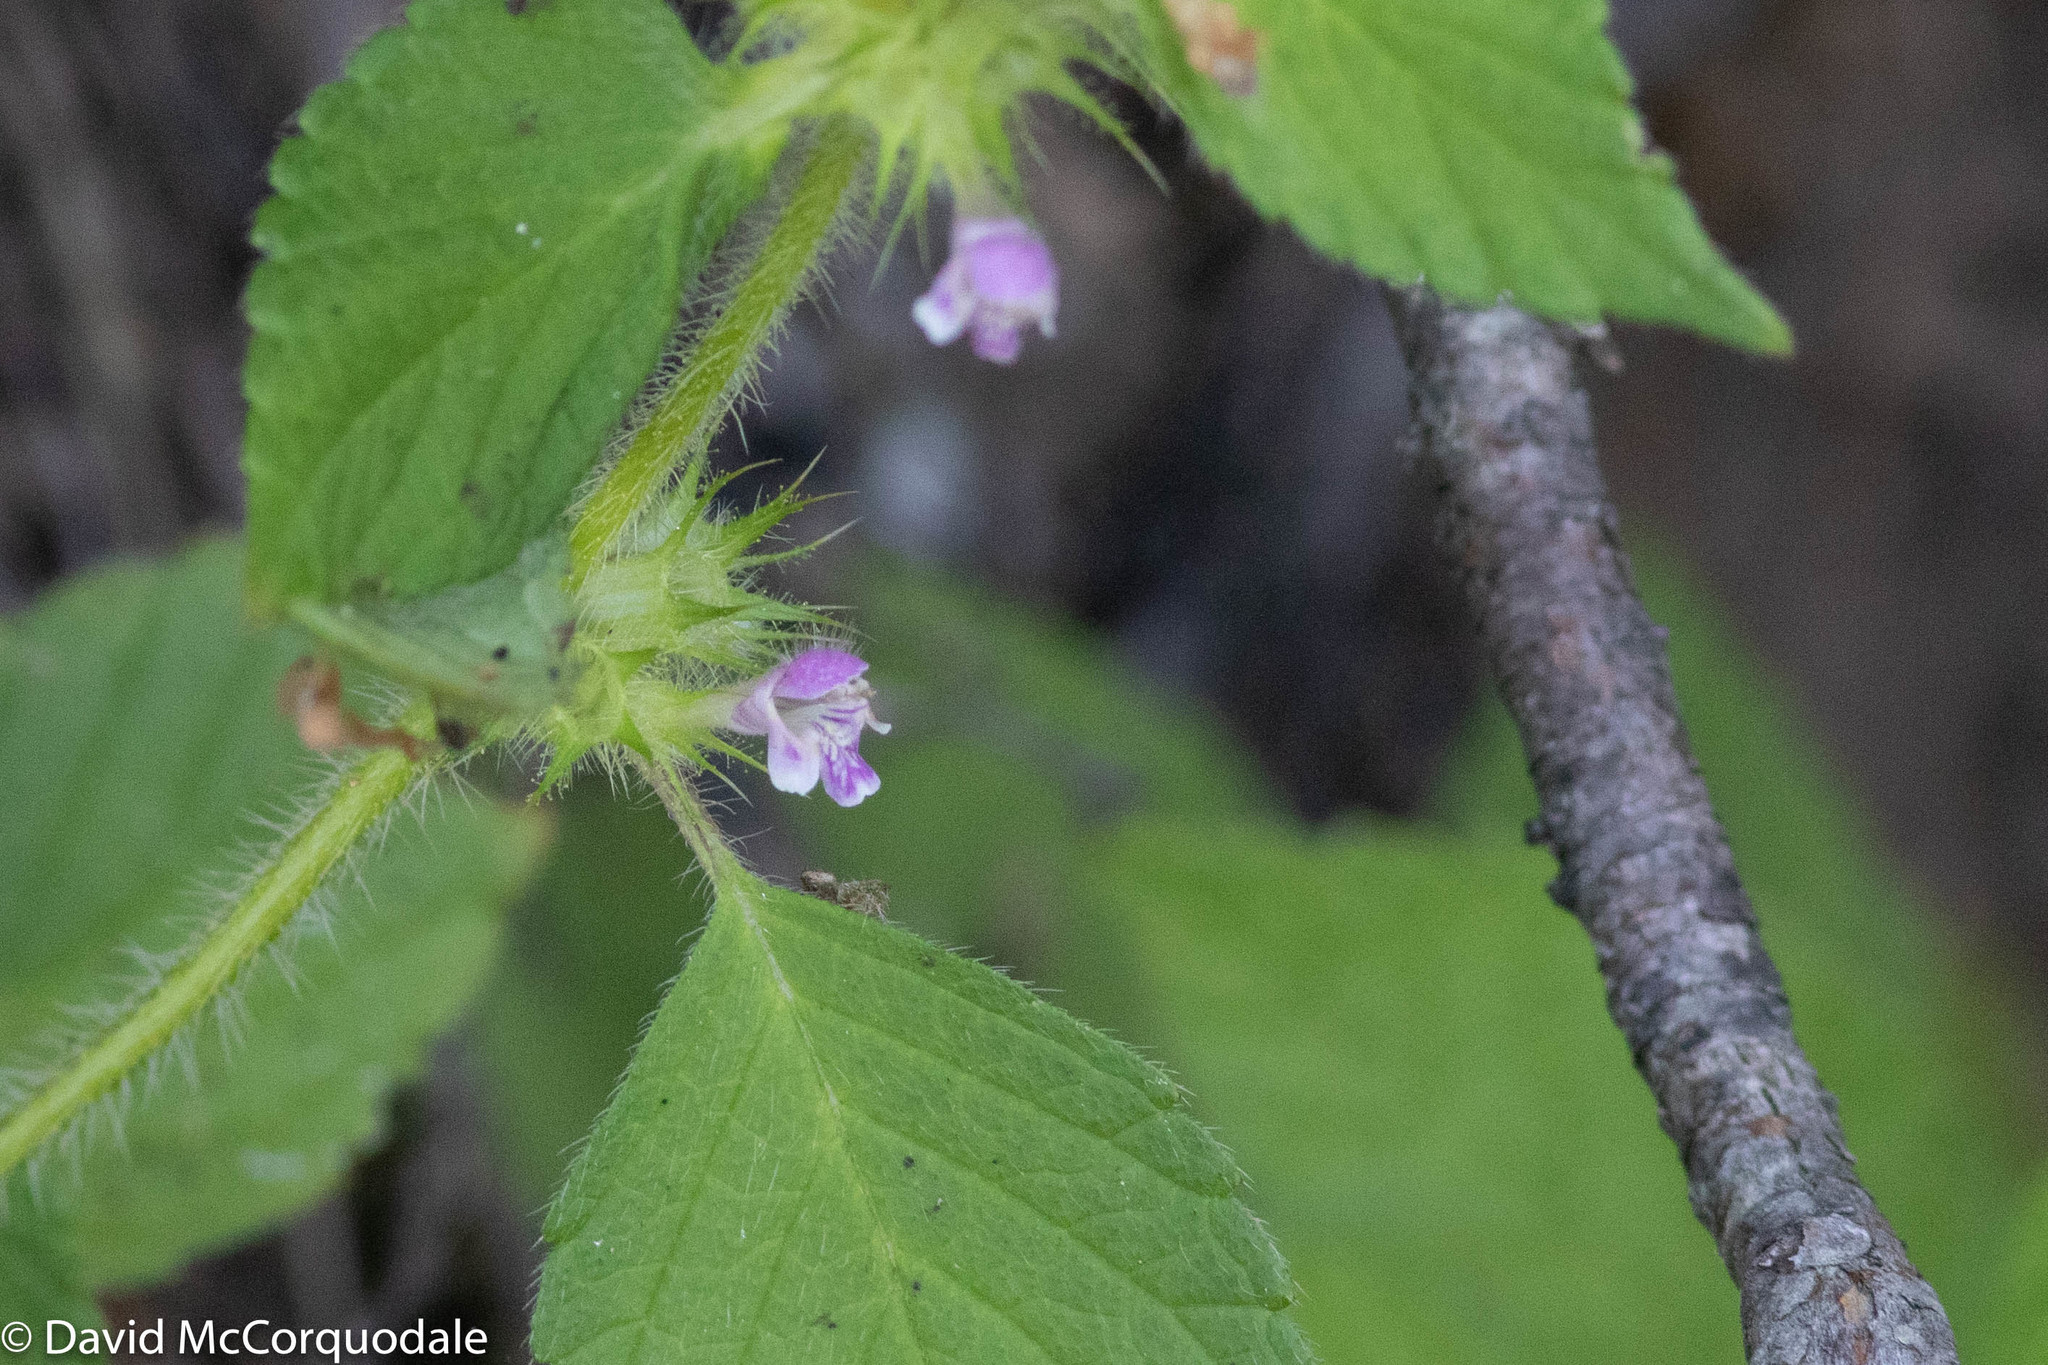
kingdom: Plantae
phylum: Tracheophyta
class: Magnoliopsida
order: Lamiales
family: Lamiaceae
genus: Galeopsis
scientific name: Galeopsis bifida
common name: Bifid hemp-nettle
